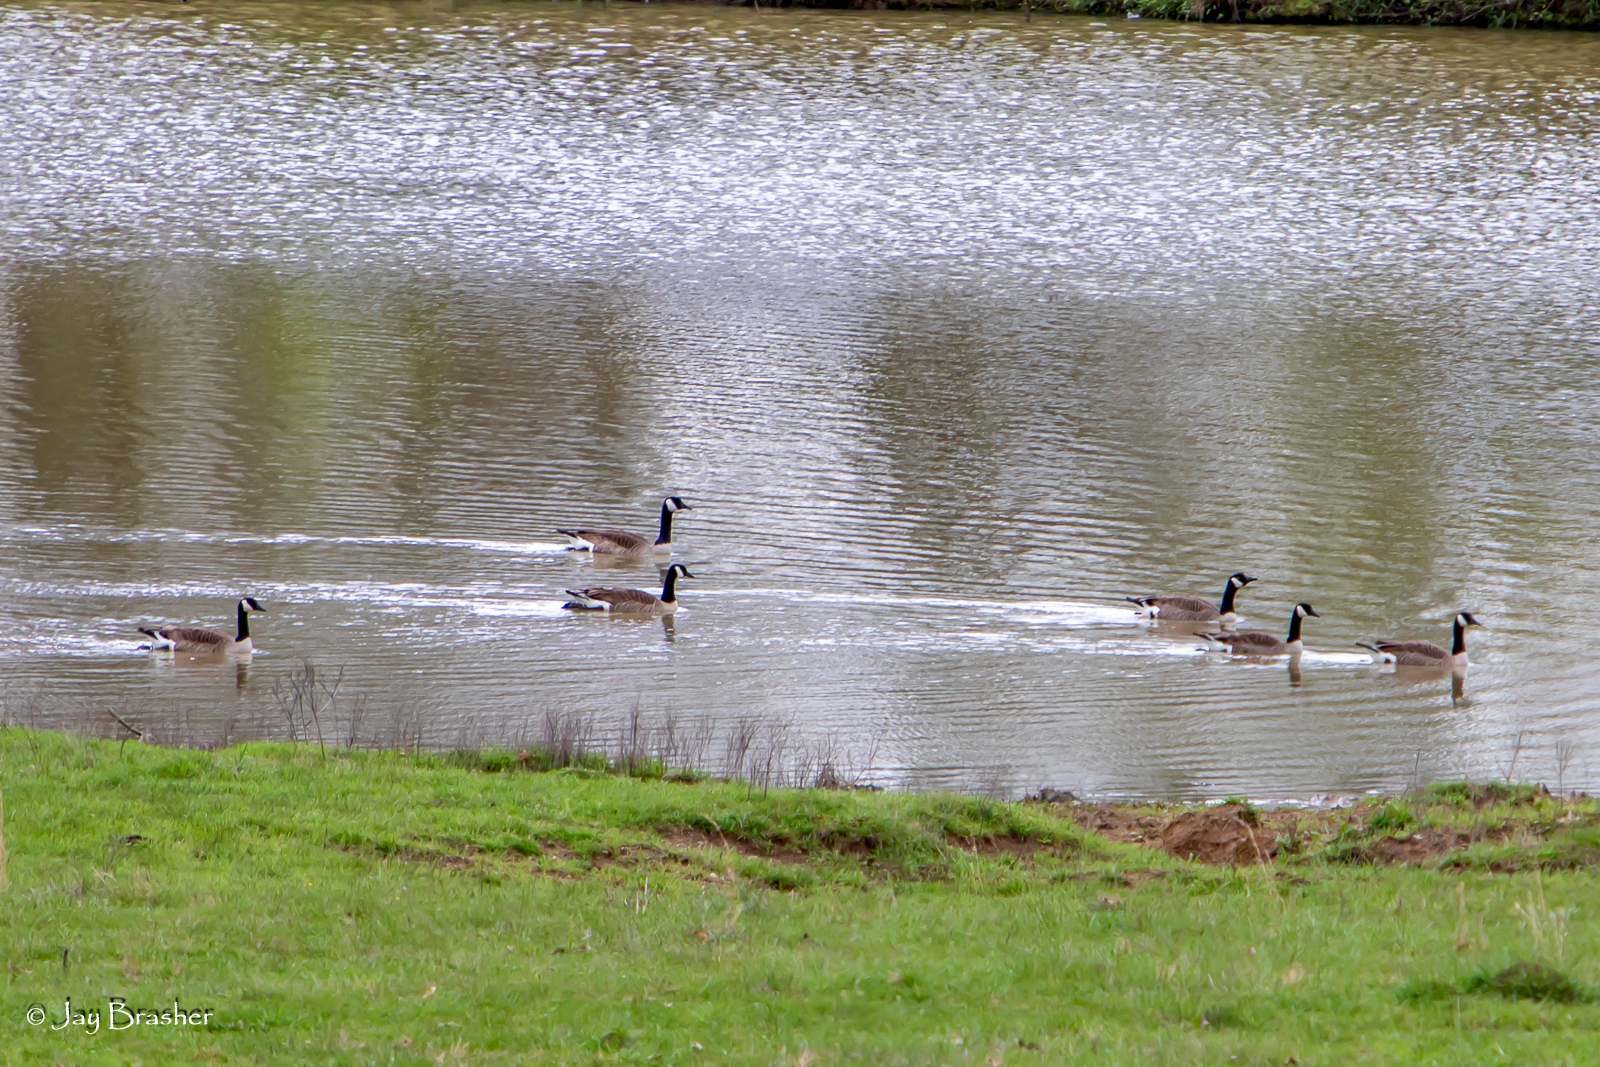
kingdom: Animalia
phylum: Chordata
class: Aves
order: Anseriformes
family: Anatidae
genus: Branta
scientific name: Branta canadensis
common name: Canada goose
